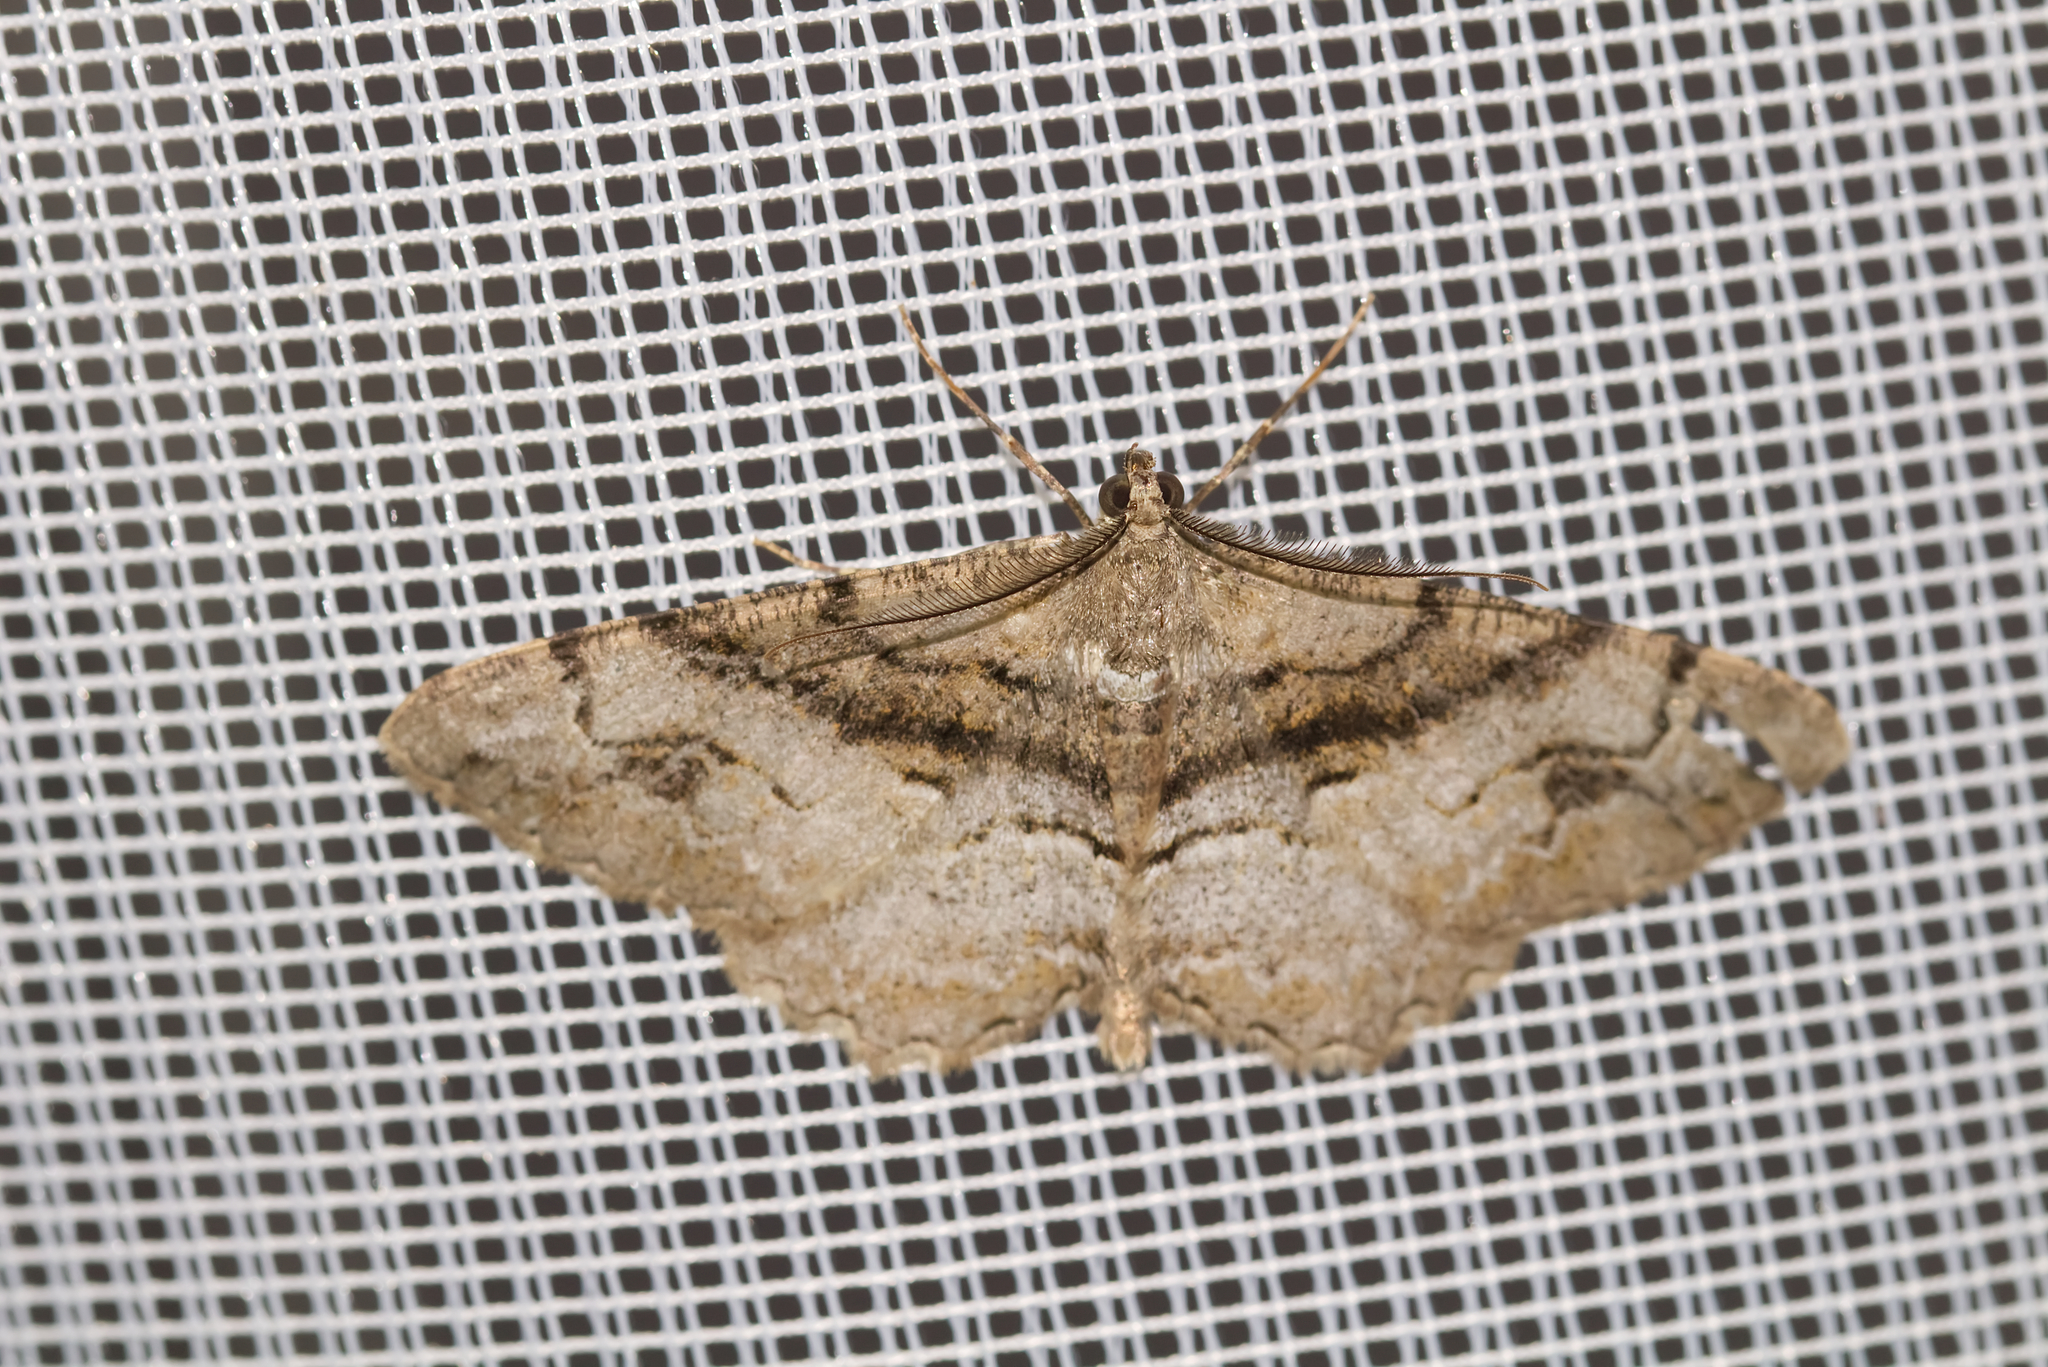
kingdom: Animalia
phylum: Arthropoda
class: Insecta
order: Lepidoptera
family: Geometridae
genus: Alcis
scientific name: Alcis deversata
